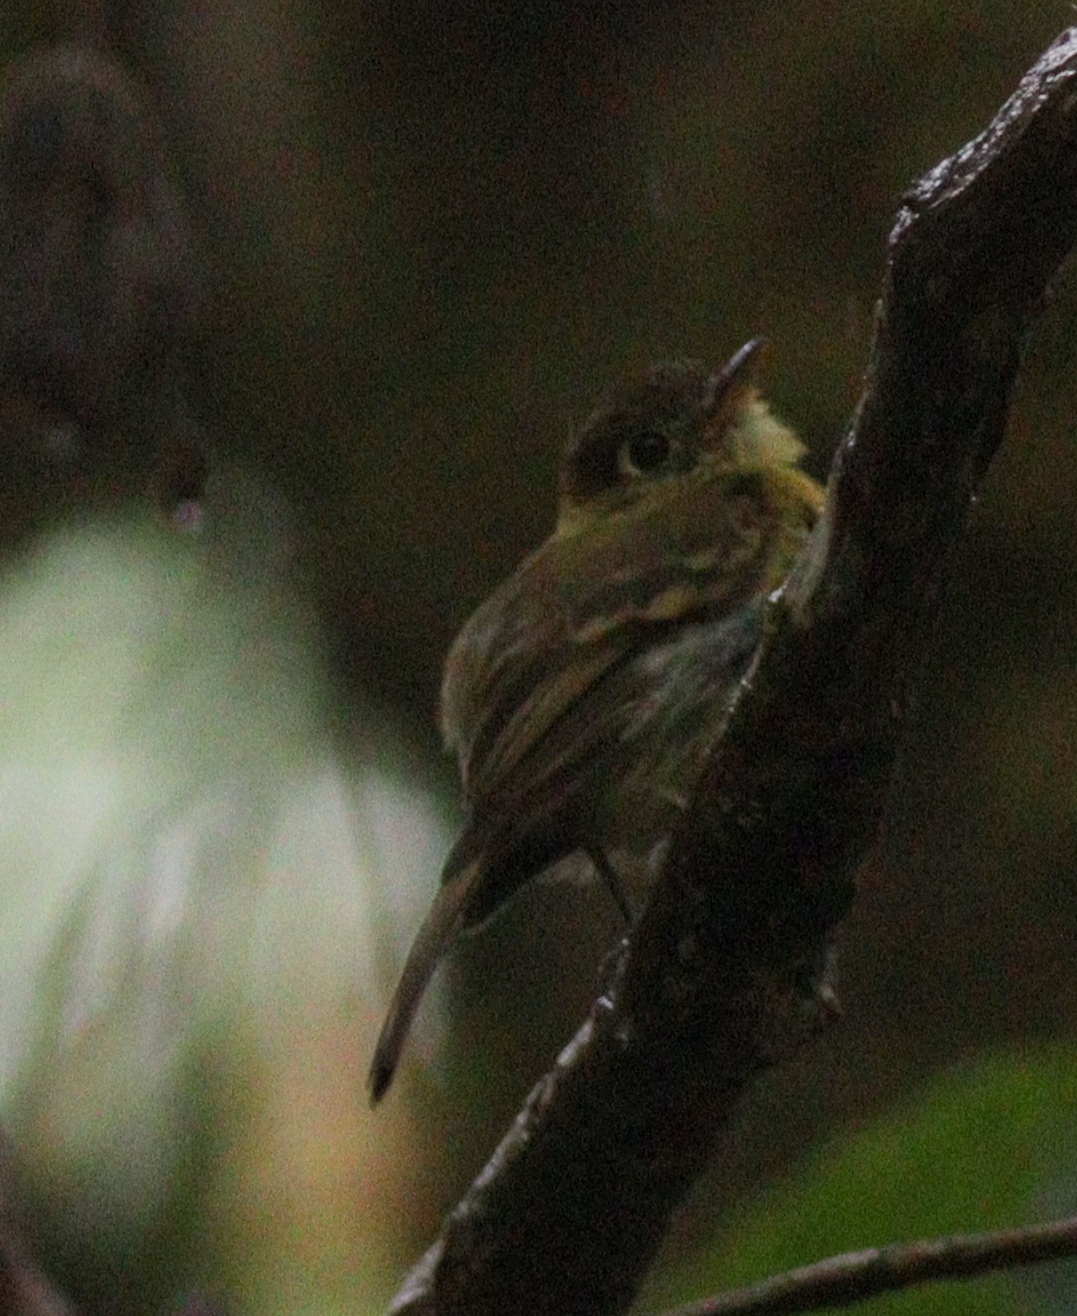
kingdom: Animalia
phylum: Chordata
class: Aves
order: Passeriformes
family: Tyrannidae
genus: Empidonax
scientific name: Empidonax flavescens
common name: Yellowish flycatcher
